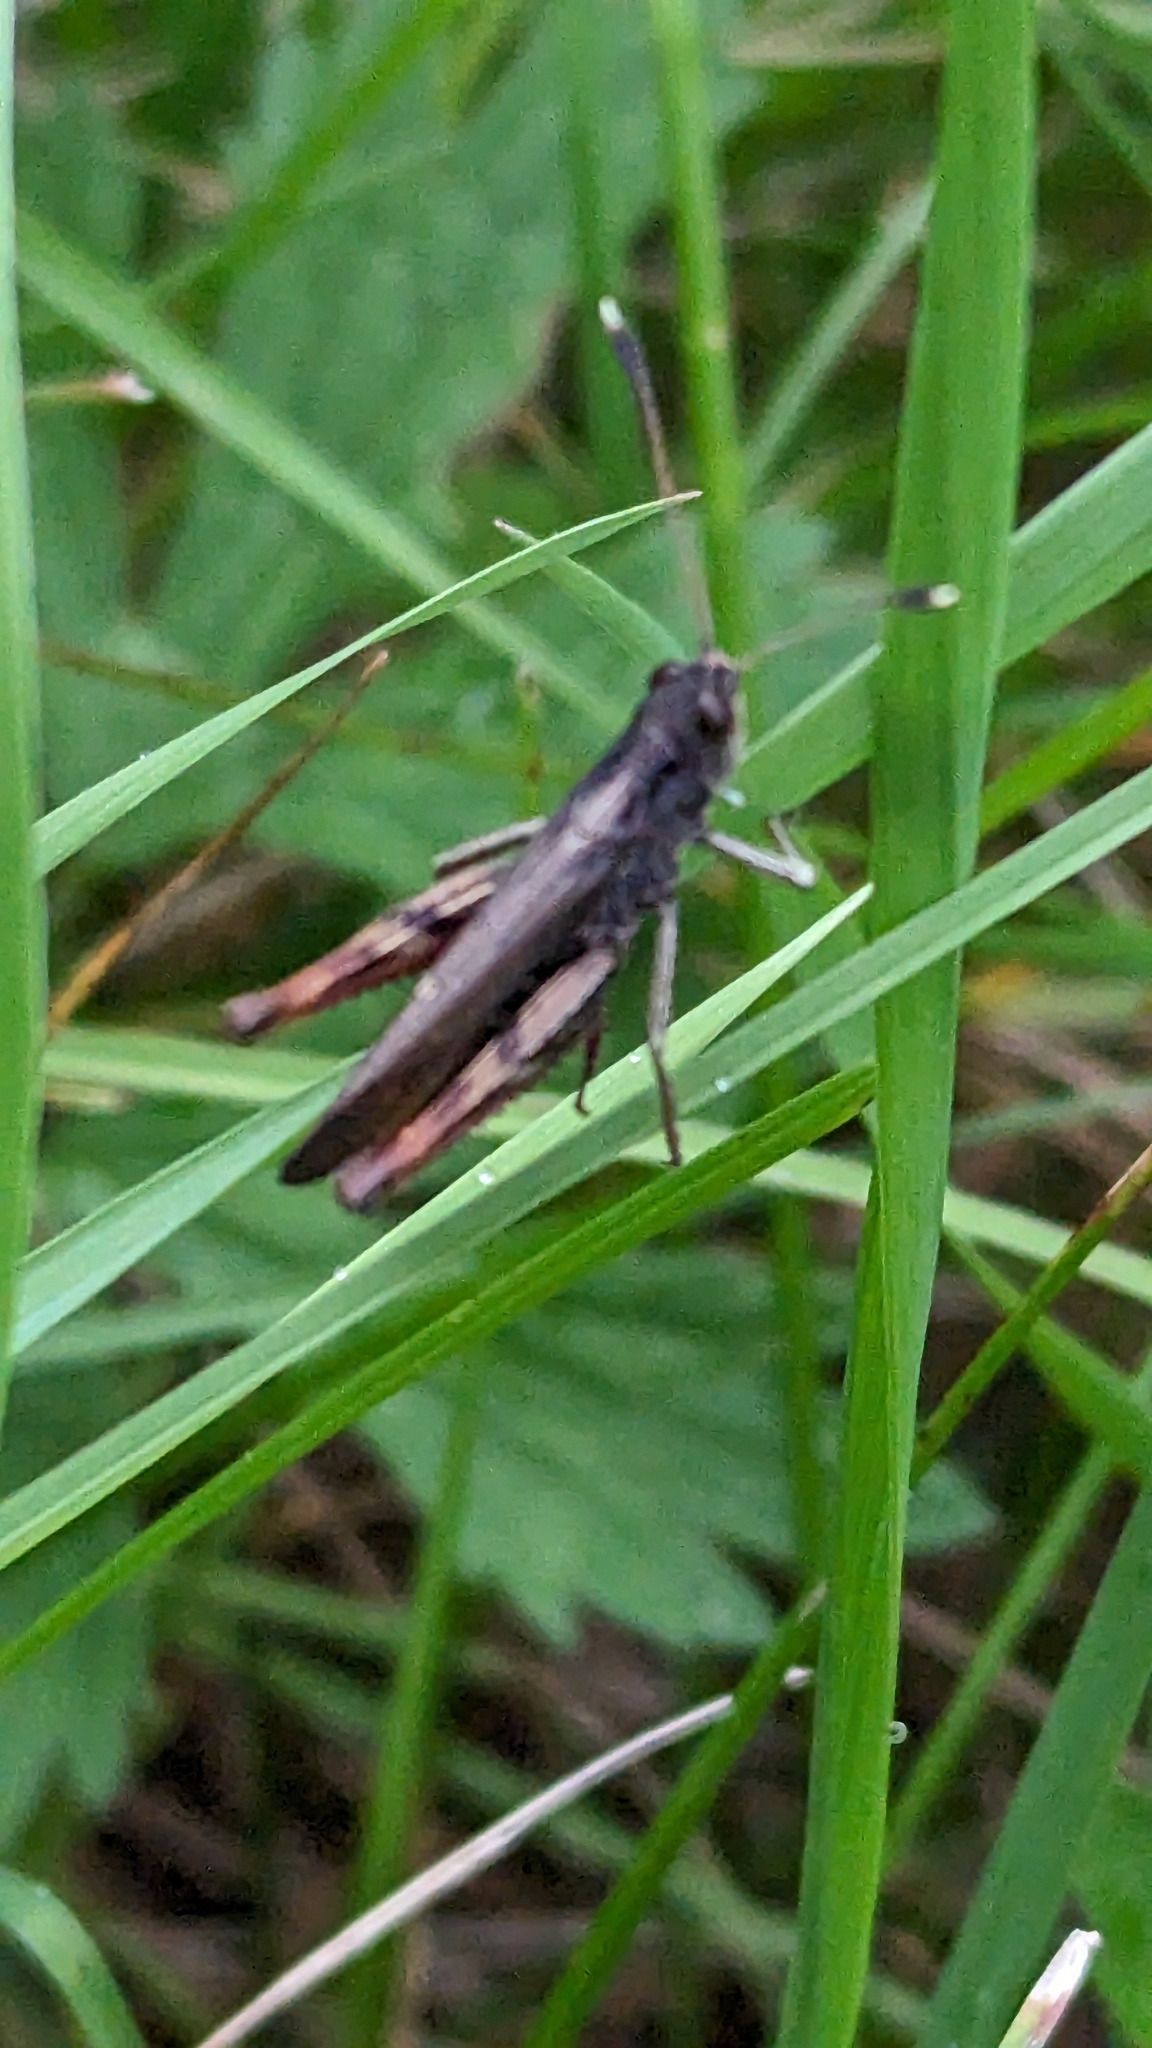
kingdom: Animalia
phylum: Arthropoda
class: Insecta
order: Orthoptera
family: Acrididae
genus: Gomphocerippus
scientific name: Gomphocerippus rufus
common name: Rufous grasshopper
